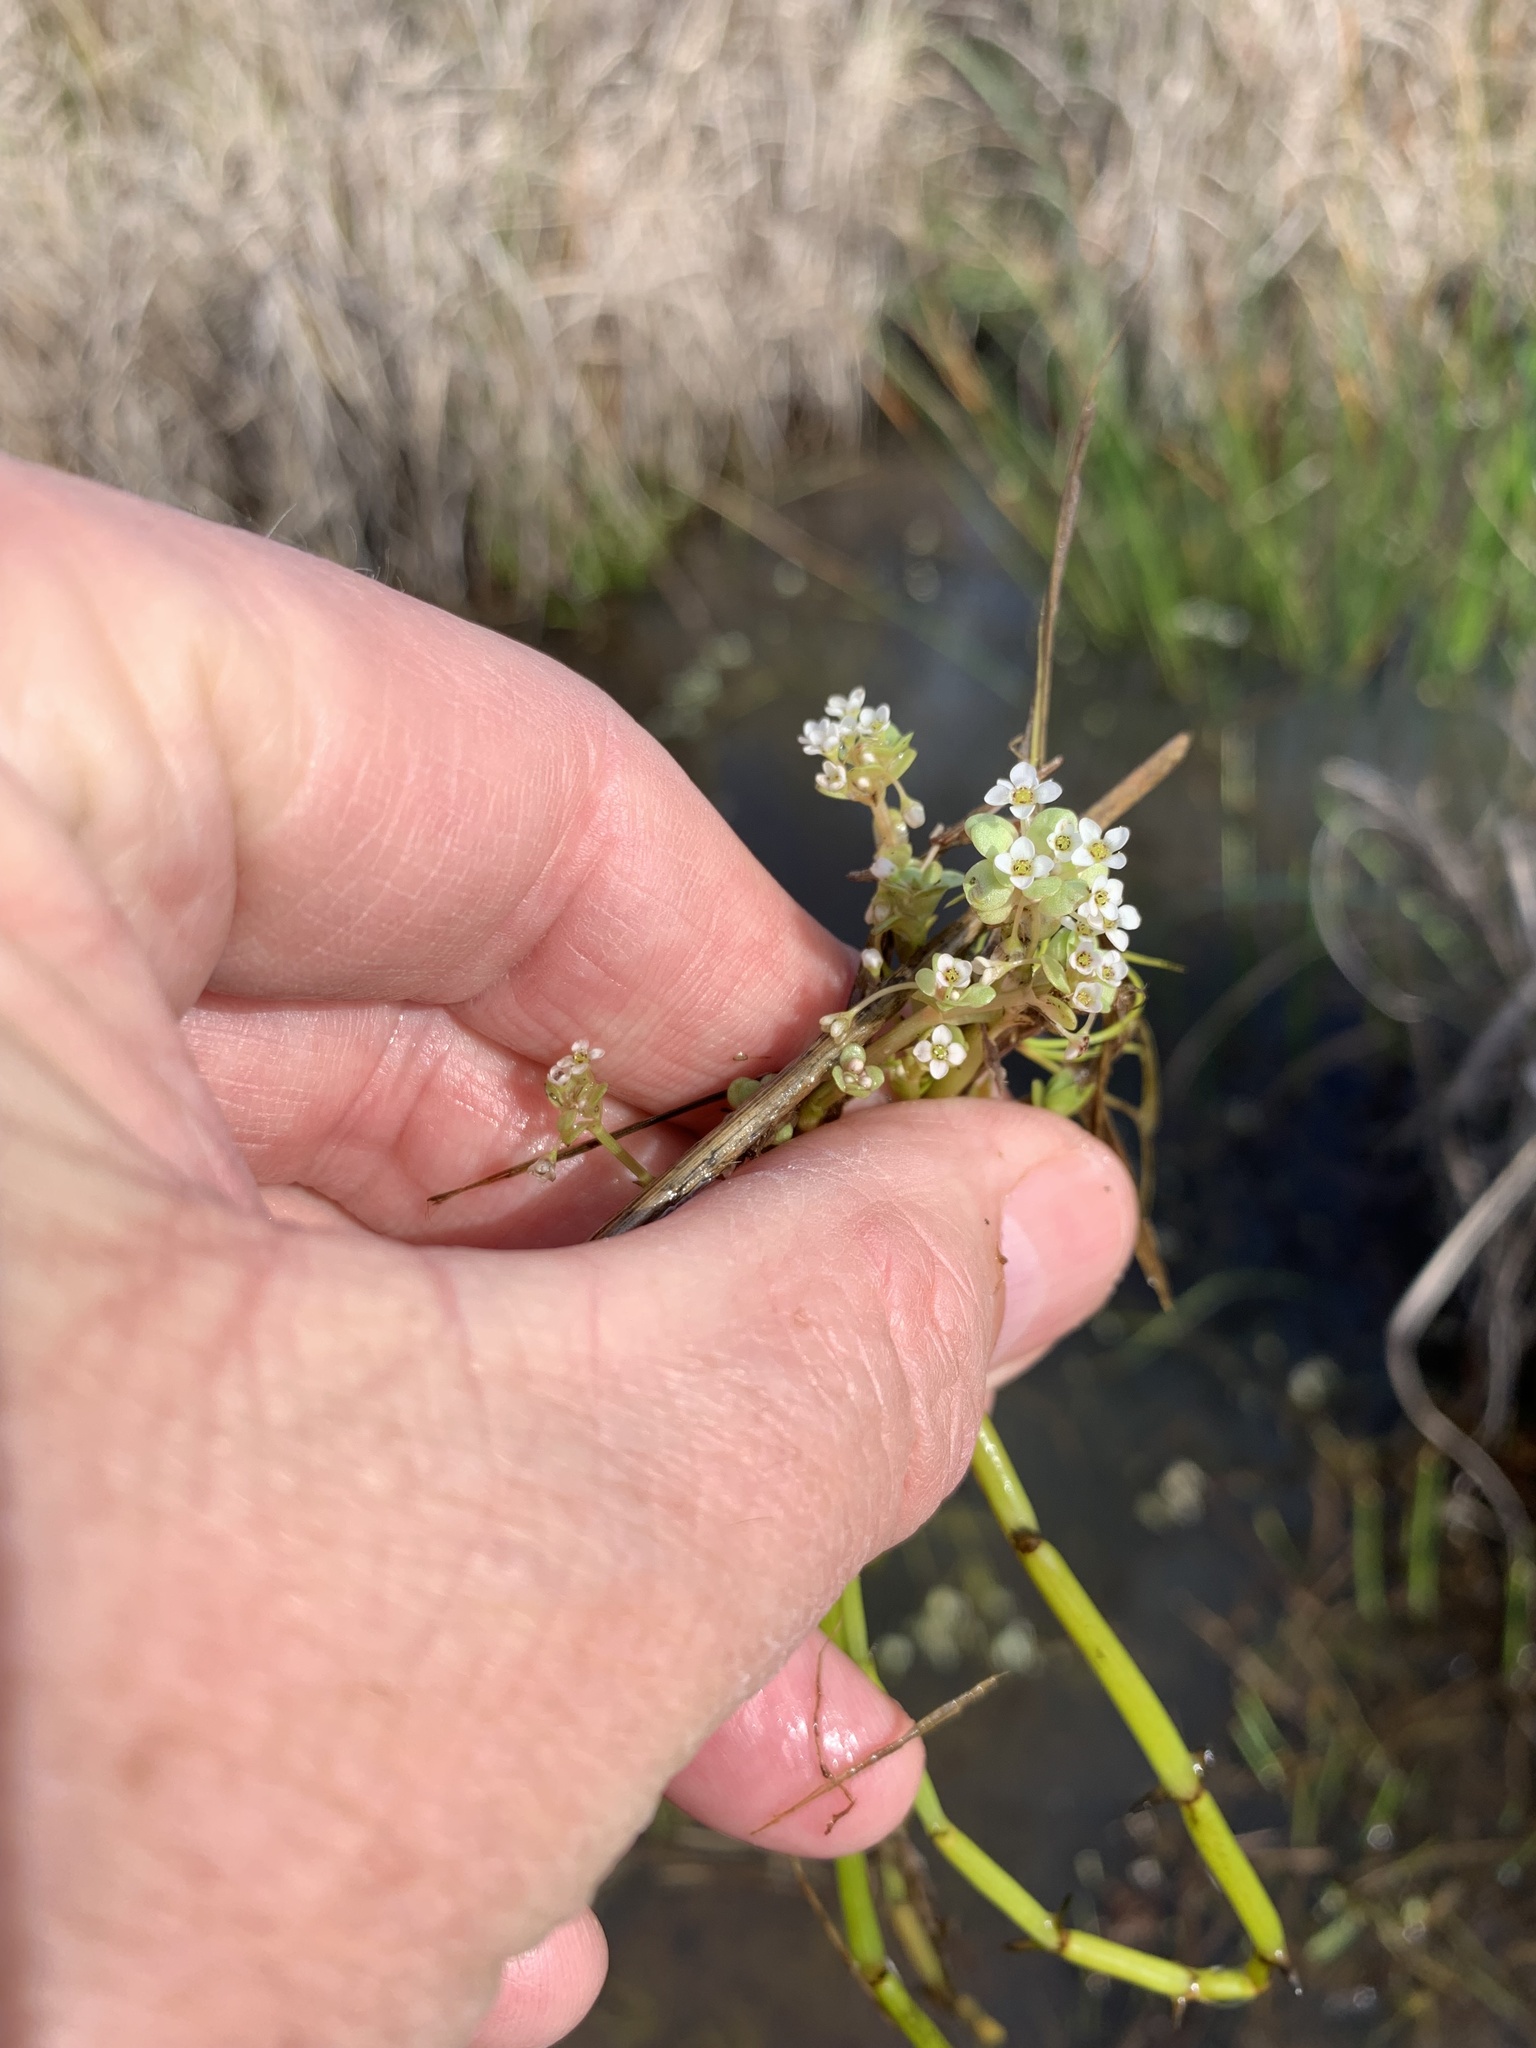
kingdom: Plantae
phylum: Tracheophyta
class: Magnoliopsida
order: Saxifragales
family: Crassulaceae
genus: Crassula
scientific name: Crassula natans
